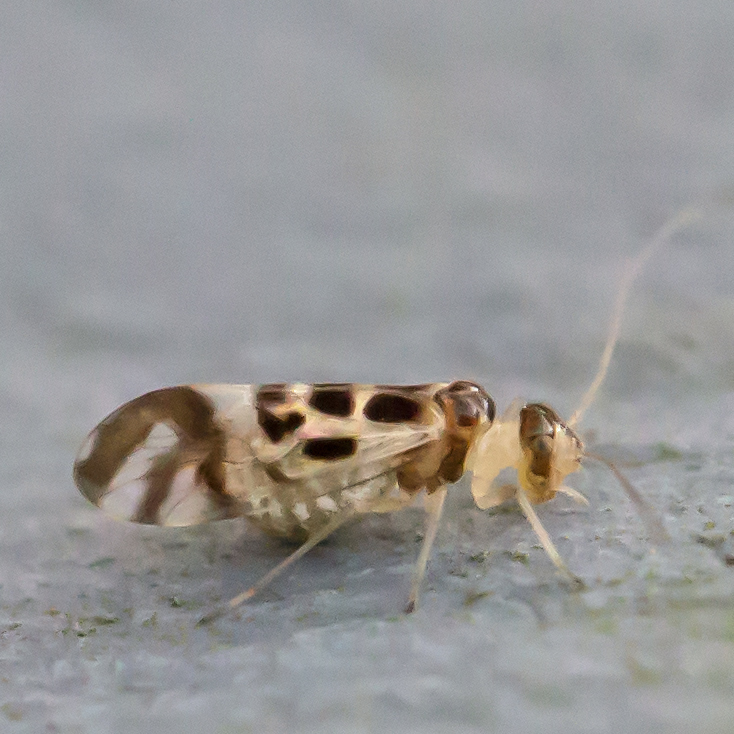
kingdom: Animalia
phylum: Arthropoda
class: Insecta
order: Psocodea
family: Stenopsocidae
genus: Graphopsocus
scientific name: Graphopsocus cruciatus
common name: Lizard bark louse
